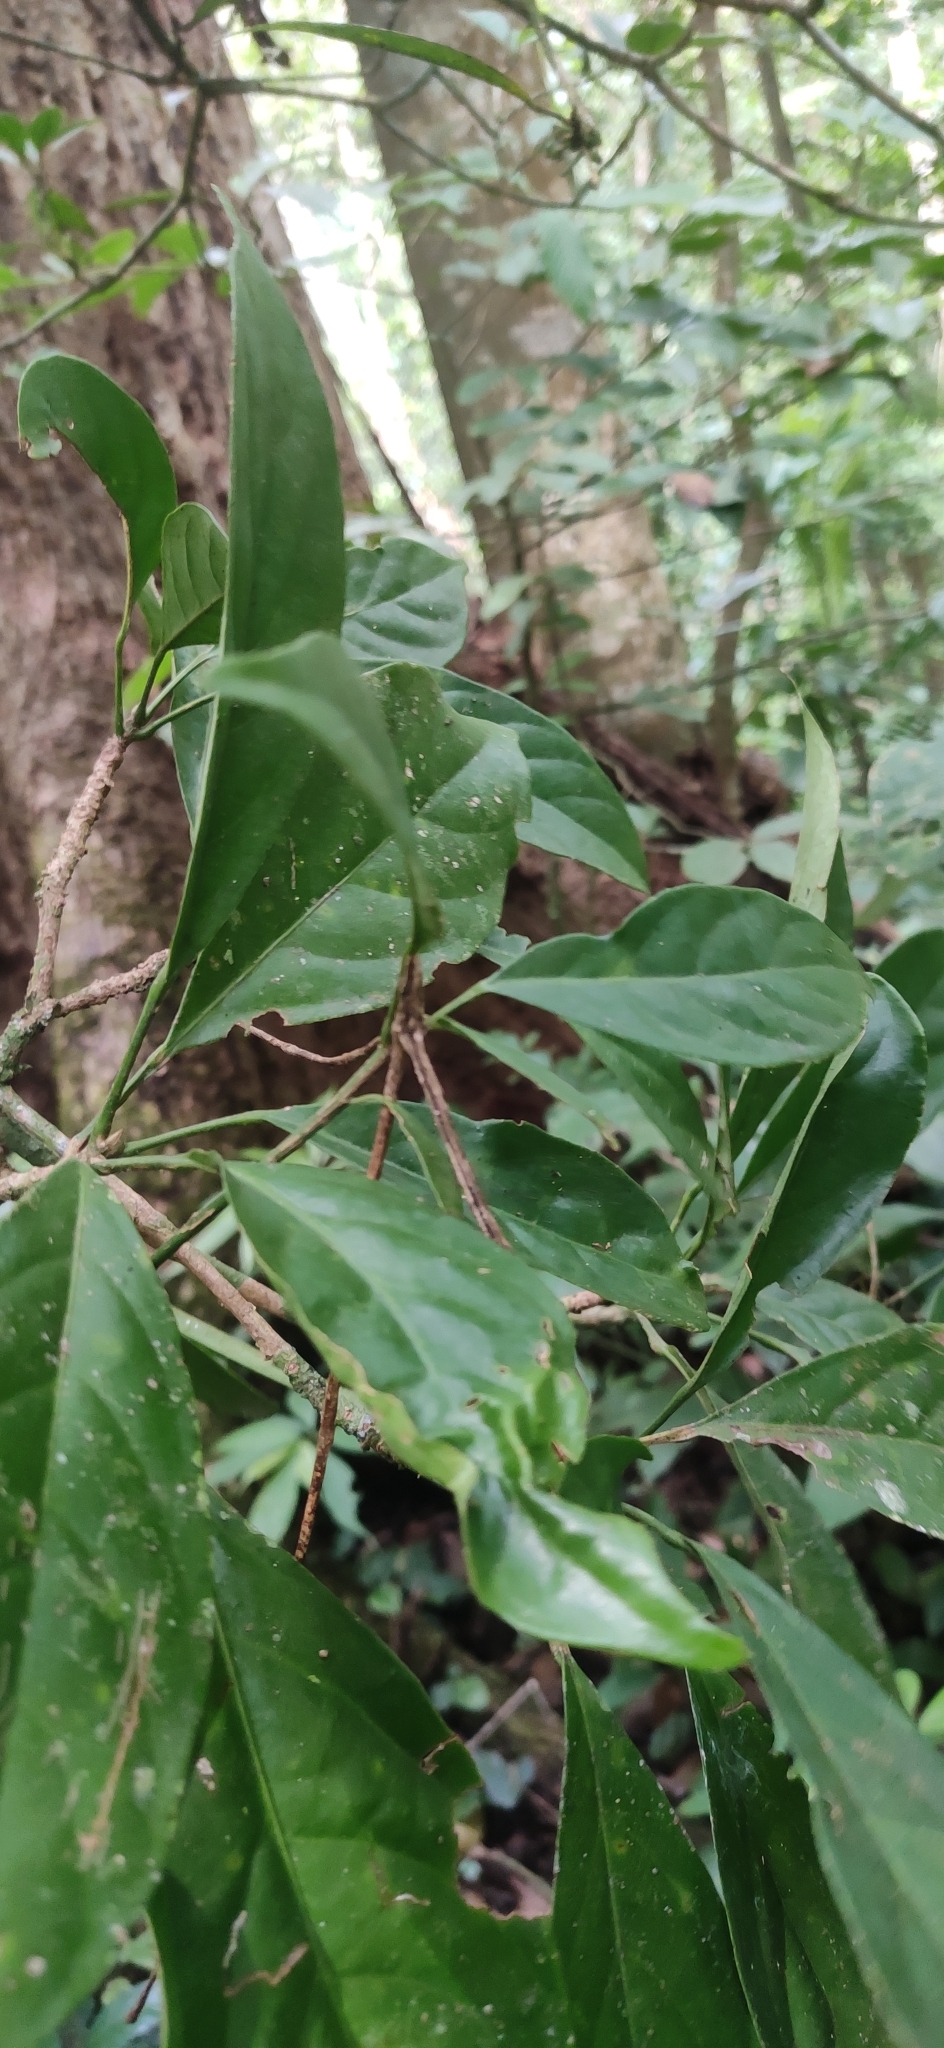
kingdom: Plantae
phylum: Tracheophyta
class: Magnoliopsida
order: Malpighiales
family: Phyllanthaceae
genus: Baccaurea
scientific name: Baccaurea courtallensis
